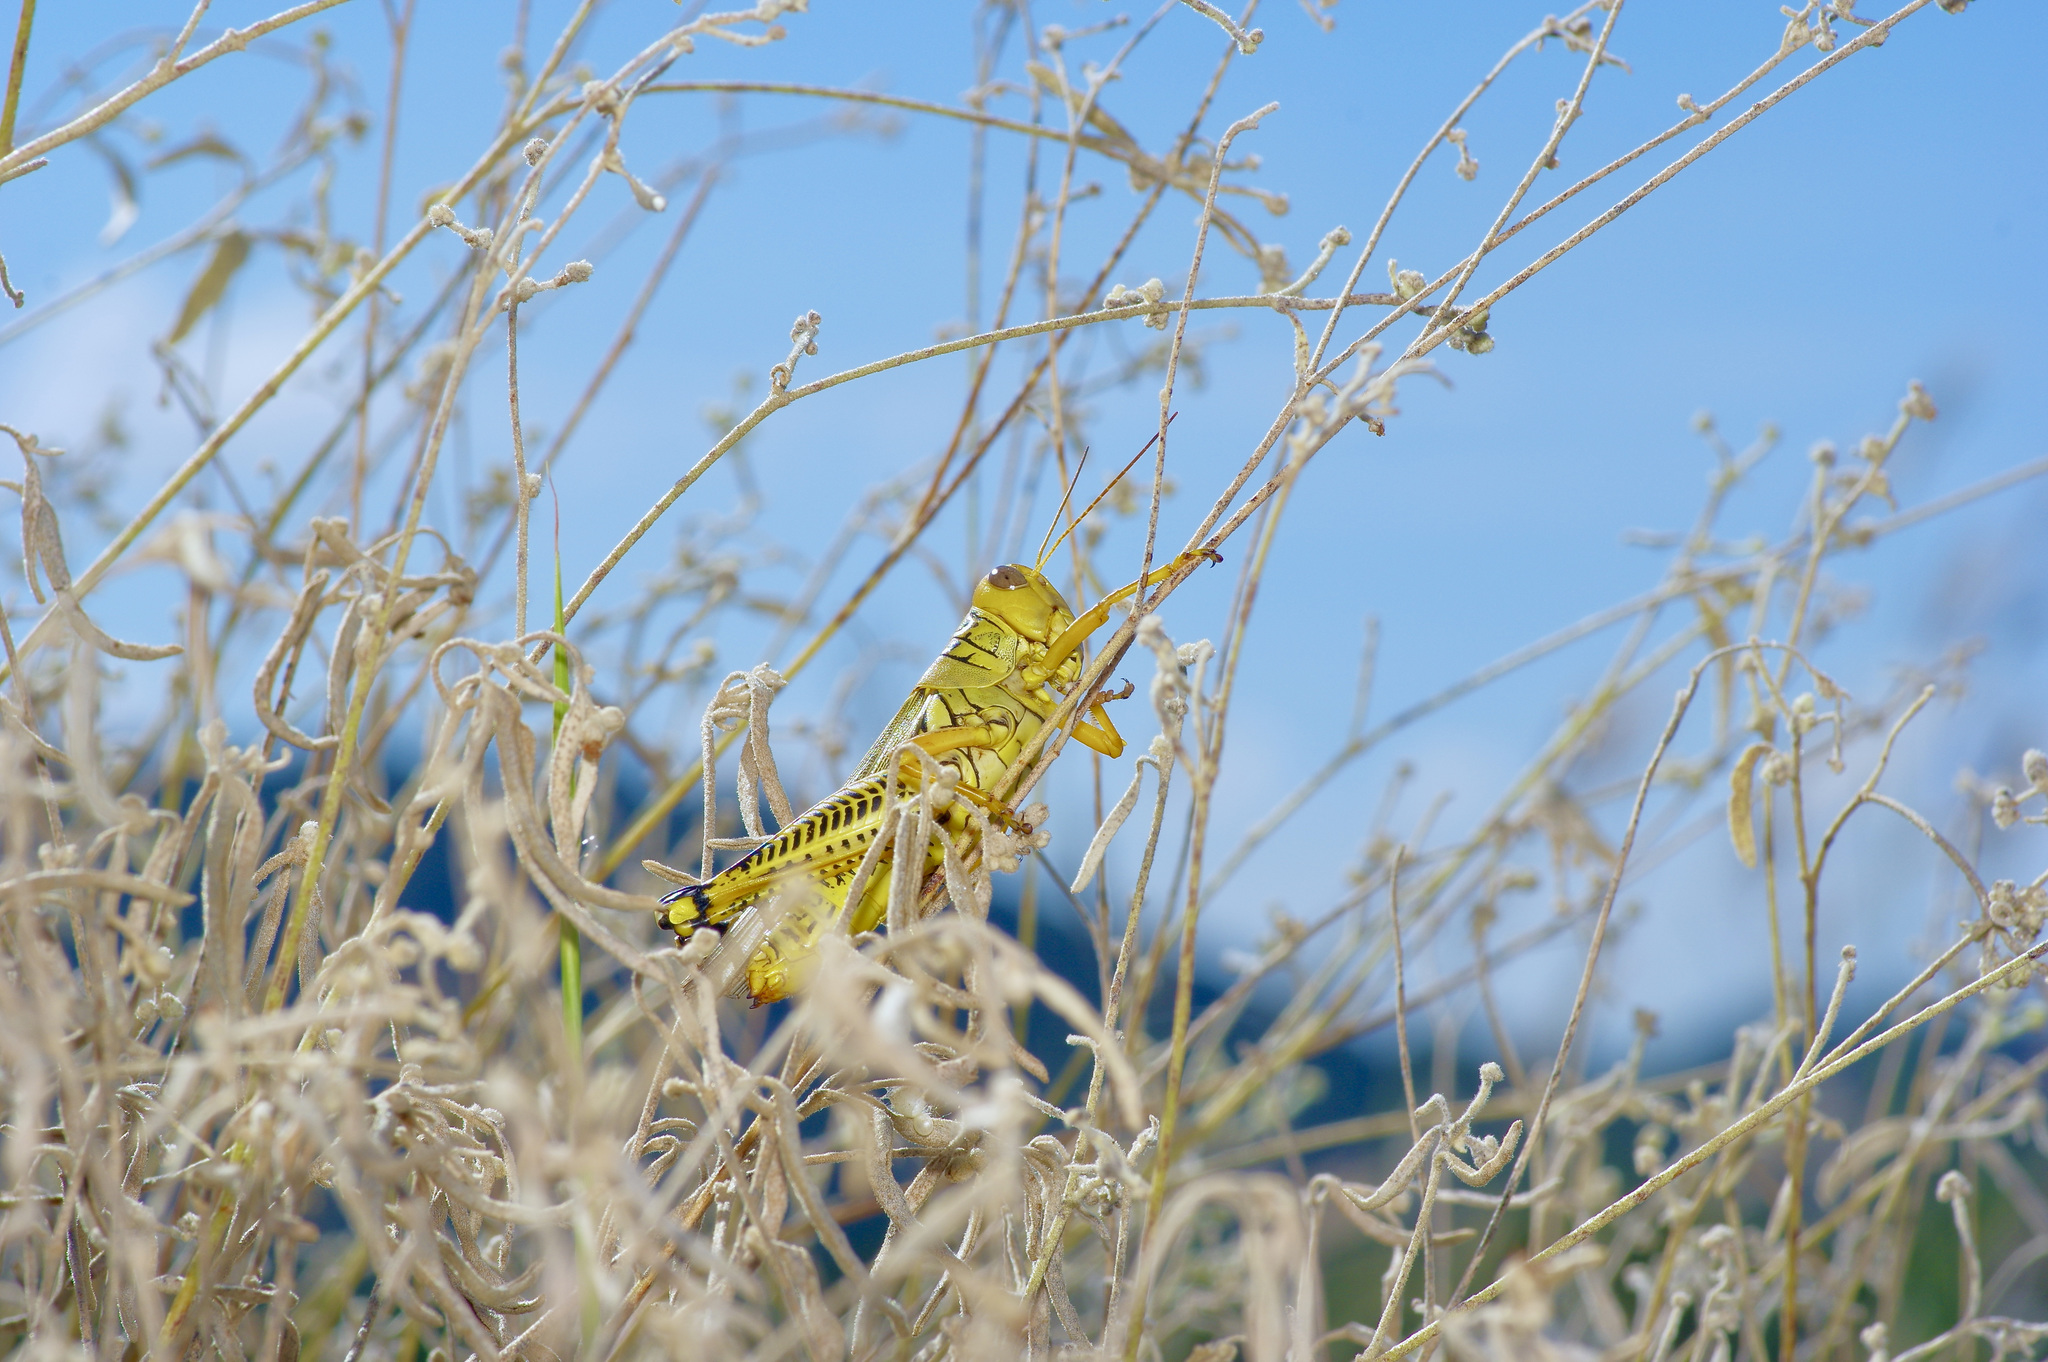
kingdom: Animalia
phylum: Arthropoda
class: Insecta
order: Orthoptera
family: Acrididae
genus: Melanoplus
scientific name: Melanoplus differentialis
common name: Differential grasshopper
